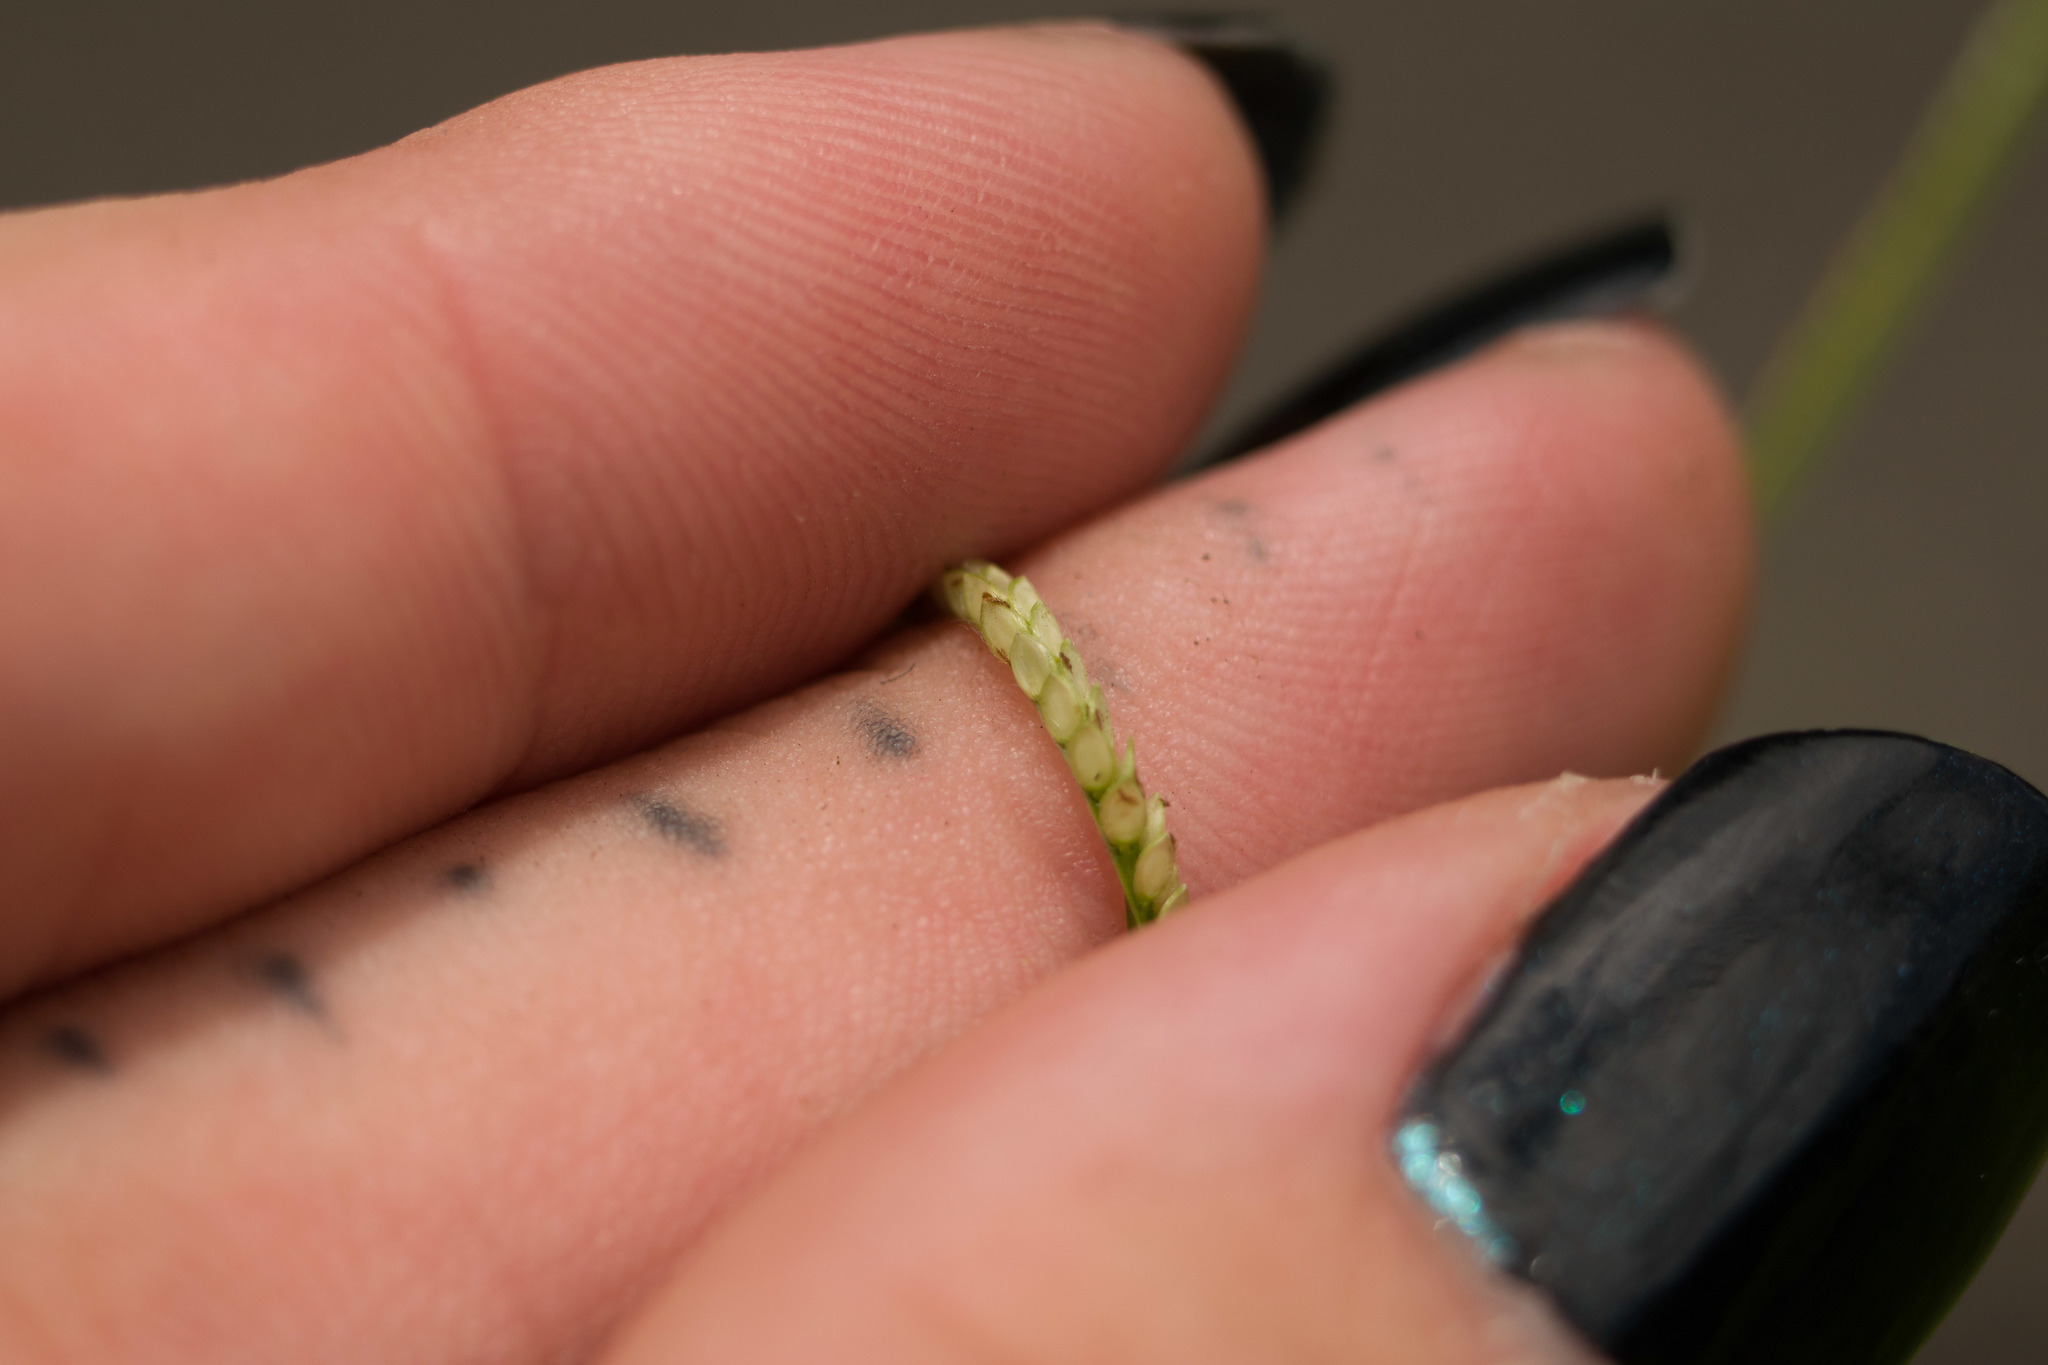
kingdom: Plantae
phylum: Tracheophyta
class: Liliopsida
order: Poales
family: Poaceae
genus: Paspalum
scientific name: Paspalum conjugatum
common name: Hilograss
